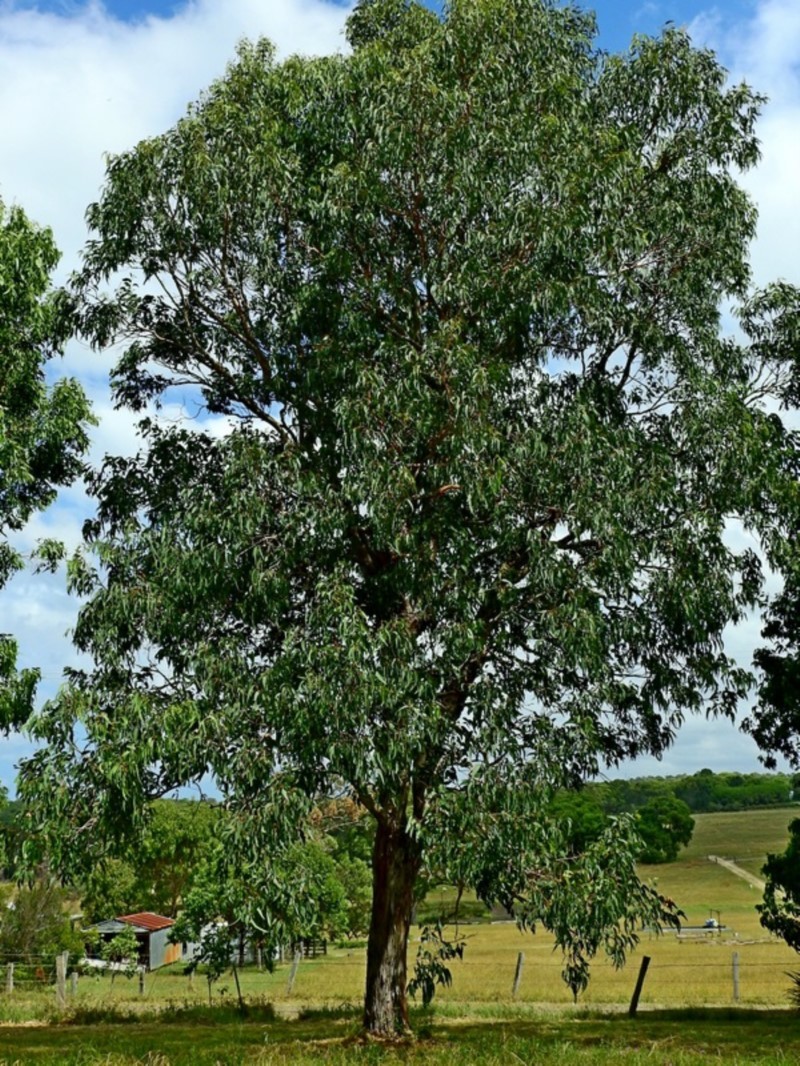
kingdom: Plantae
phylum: Tracheophyta
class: Magnoliopsida
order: Myrtales
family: Myrtaceae
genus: Eucalyptus
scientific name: Eucalyptus longifolia
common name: Woollybutt
